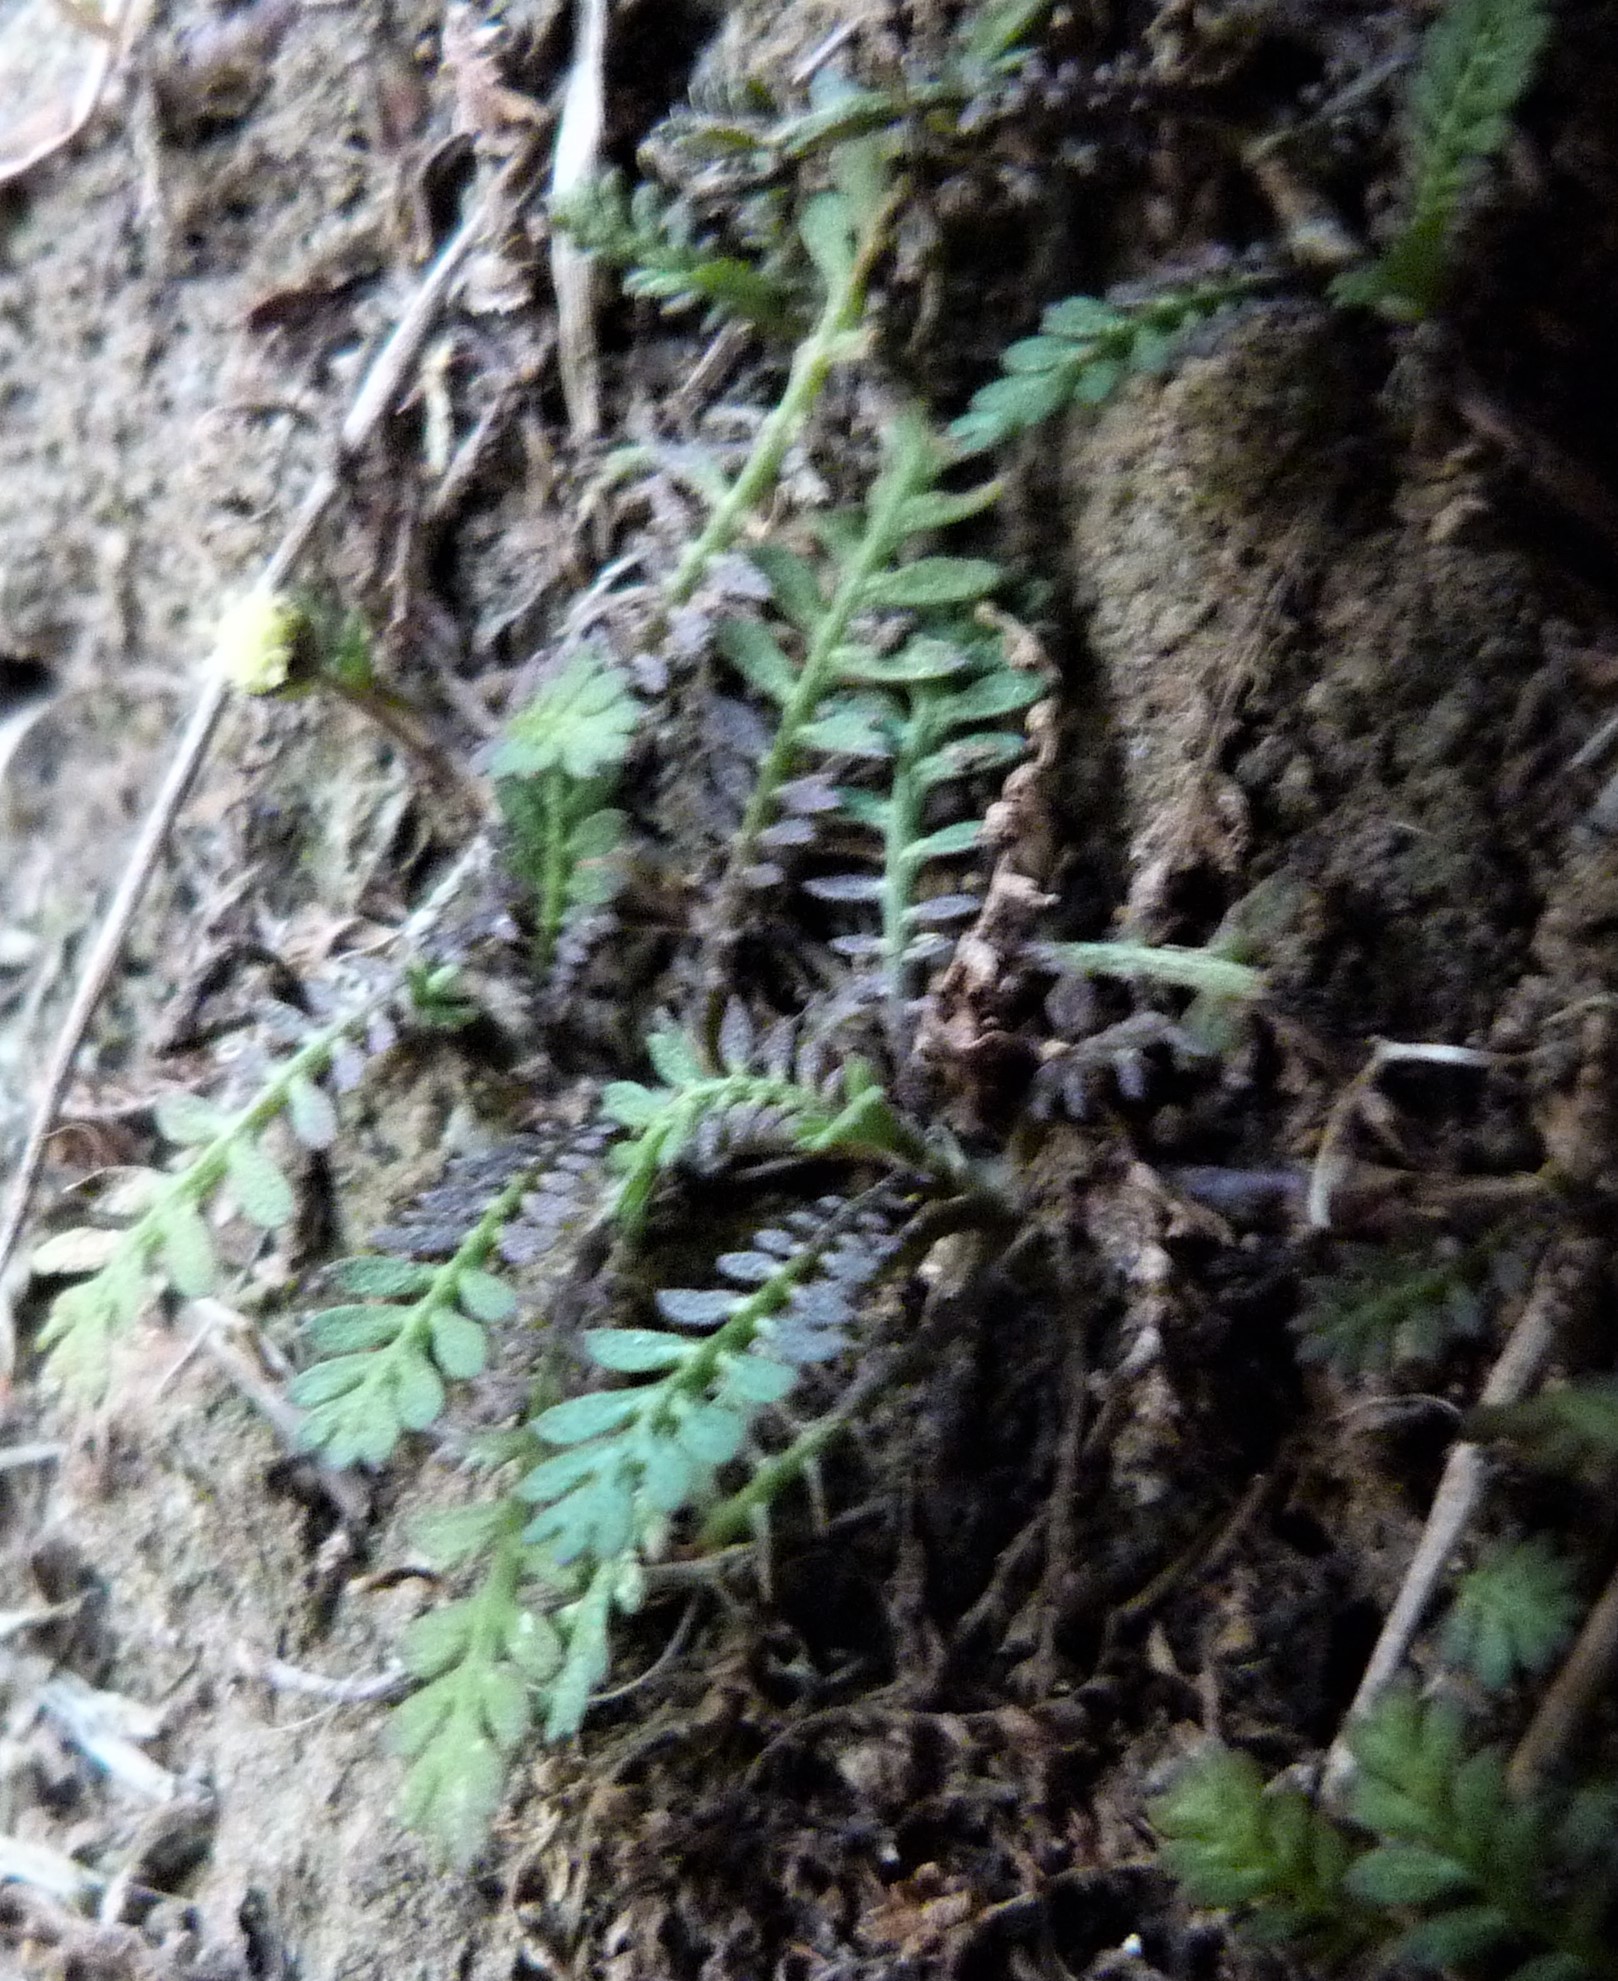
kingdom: Plantae
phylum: Tracheophyta
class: Magnoliopsida
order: Asterales
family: Asteraceae
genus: Leptinella
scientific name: Leptinella nana
